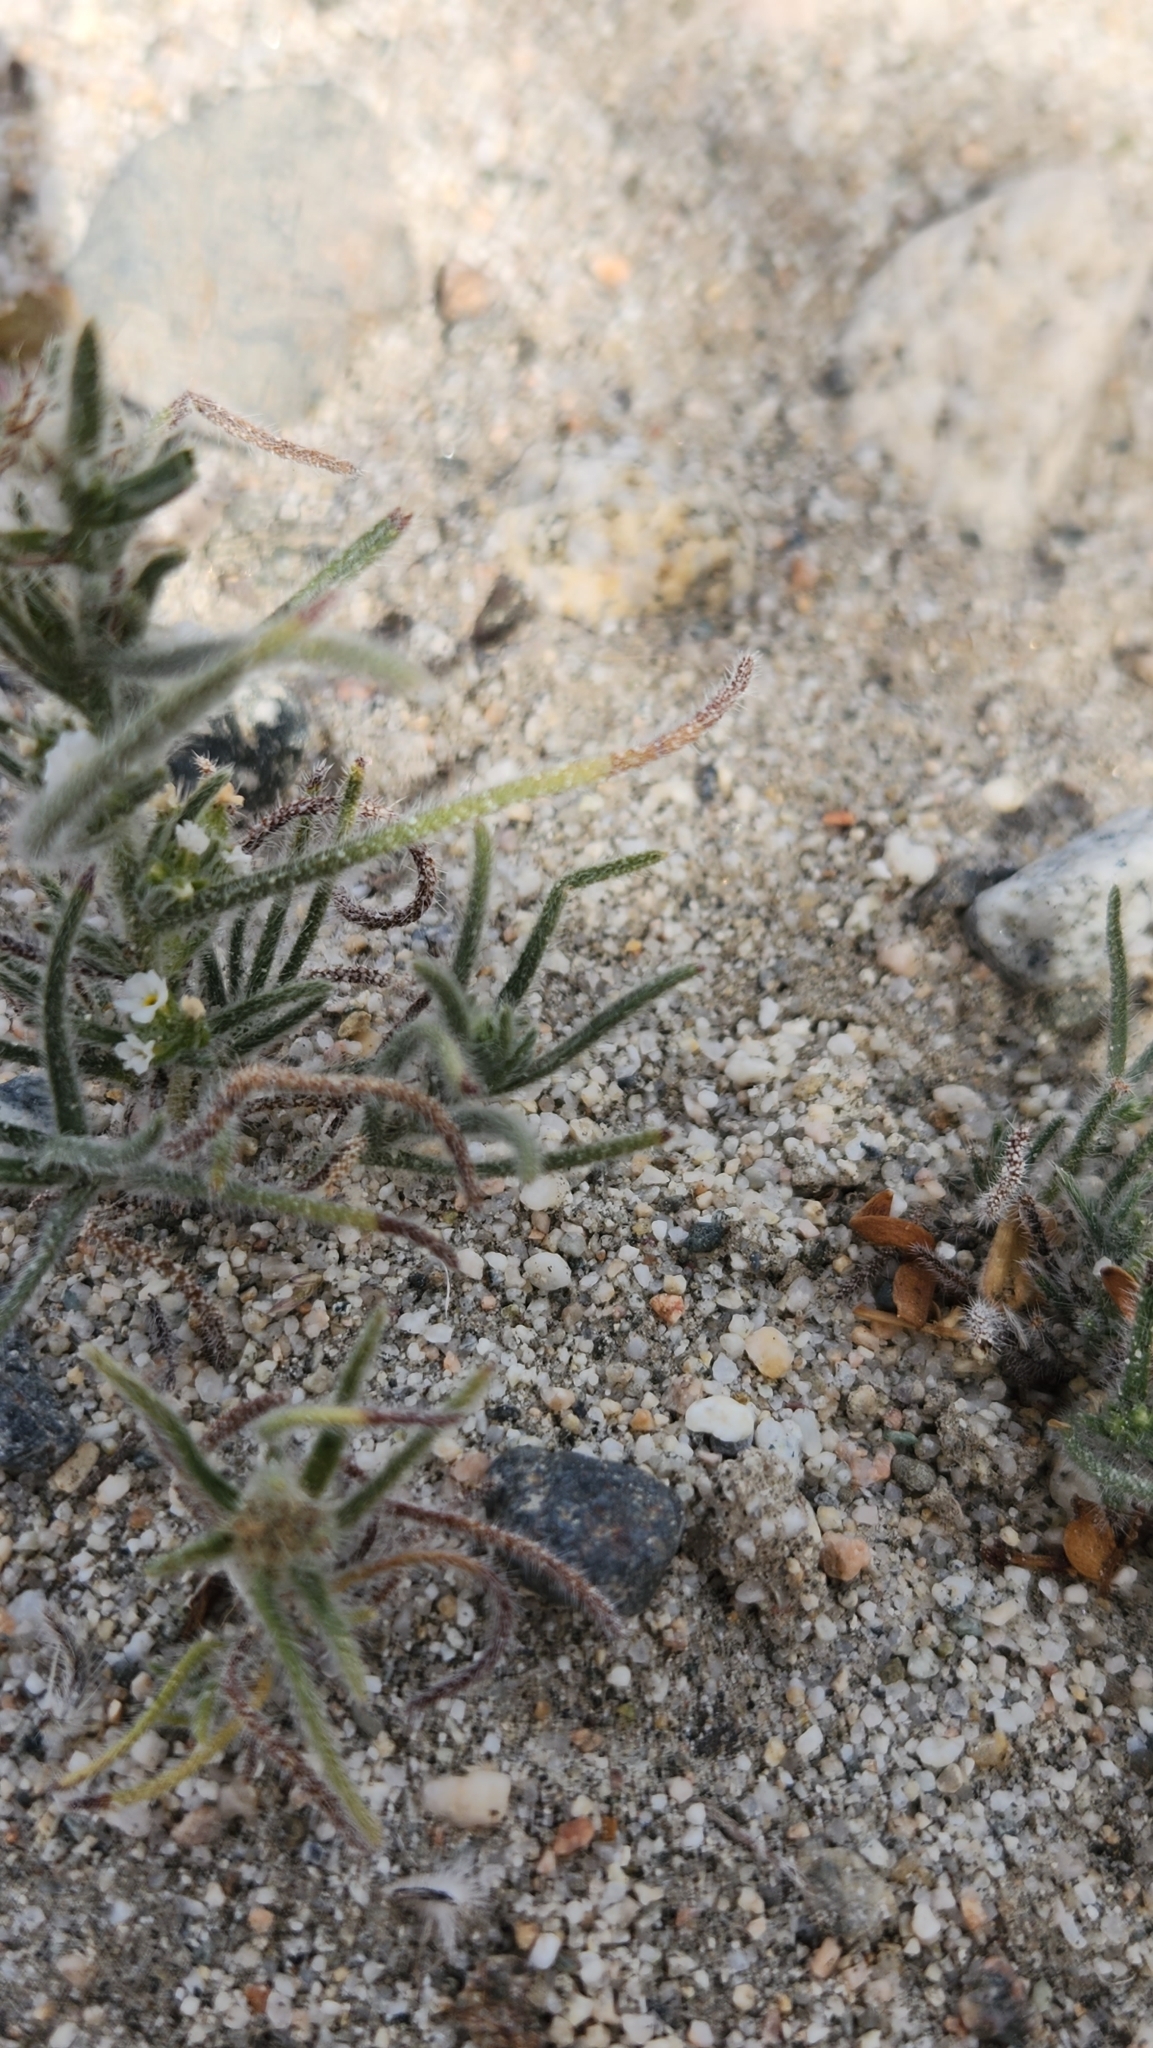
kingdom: Plantae
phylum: Tracheophyta
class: Magnoliopsida
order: Boraginales
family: Boraginaceae
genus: Johnstonella
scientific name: Johnstonella angustifolia
